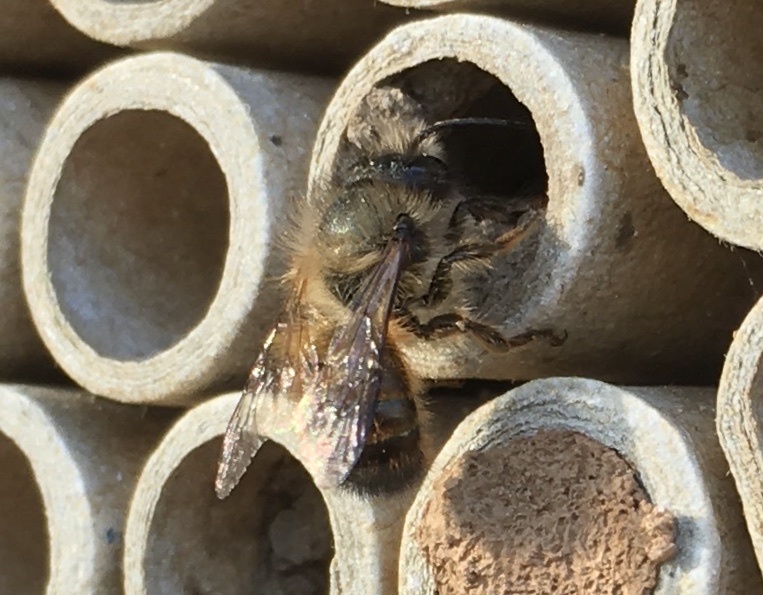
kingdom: Animalia
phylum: Arthropoda
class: Insecta
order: Hymenoptera
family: Megachilidae
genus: Osmia
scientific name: Osmia bicornis
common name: Red mason bee
